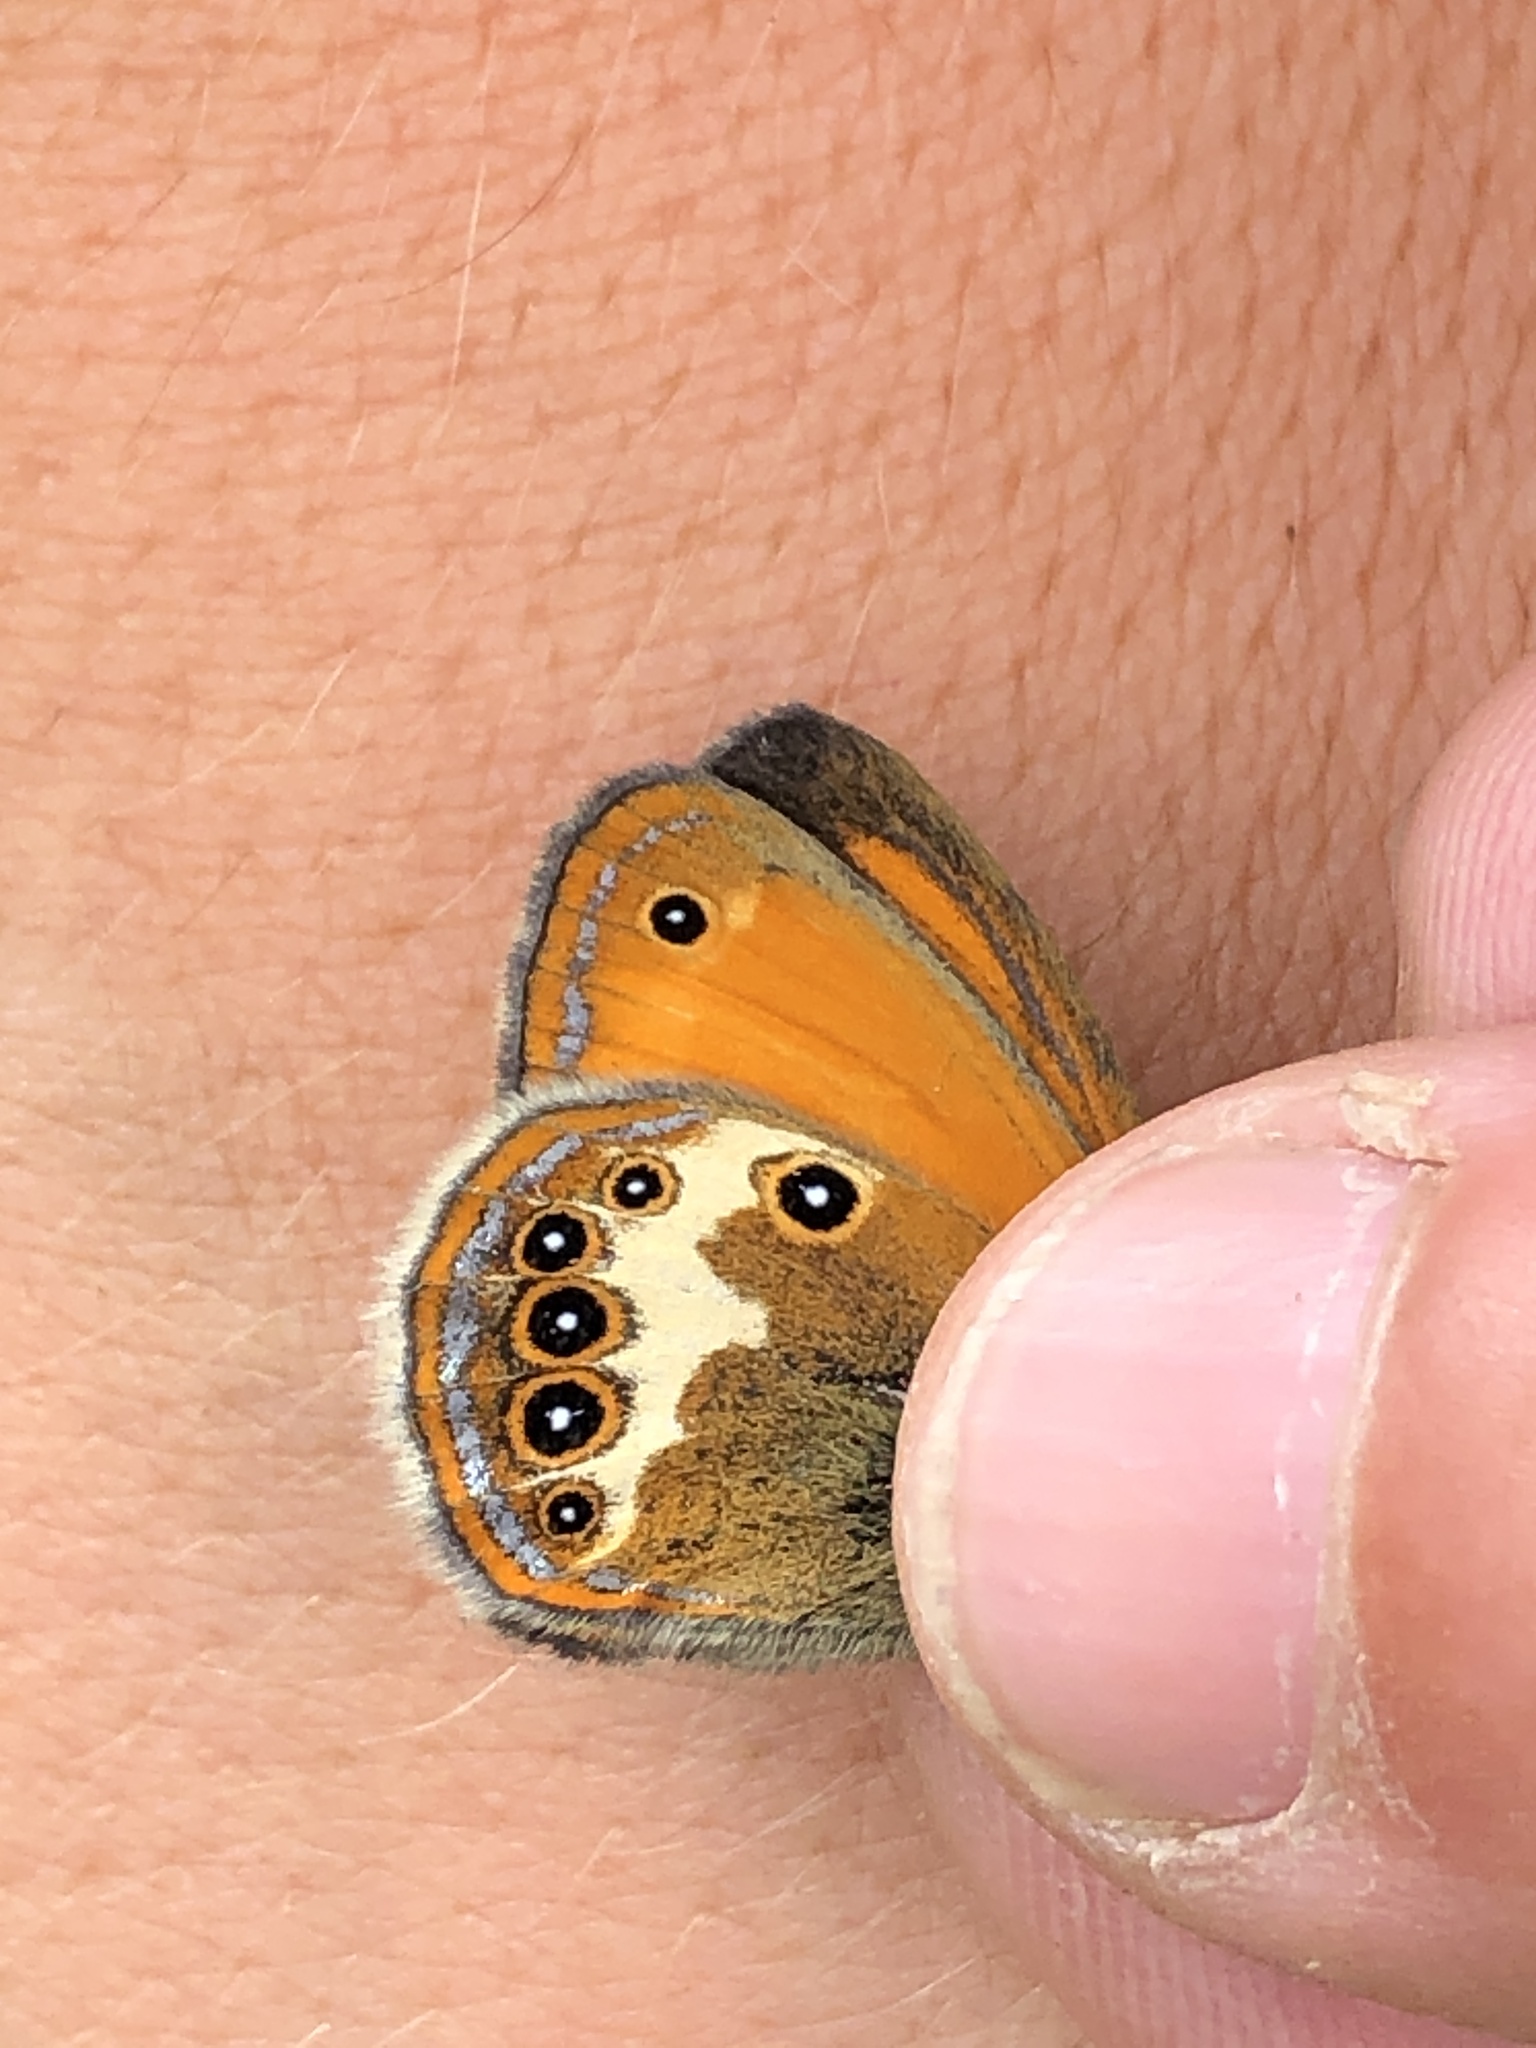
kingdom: Animalia
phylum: Arthropoda
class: Insecta
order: Lepidoptera
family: Nymphalidae
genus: Coenonympha
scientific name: Coenonympha arcania
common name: Pearly heath
